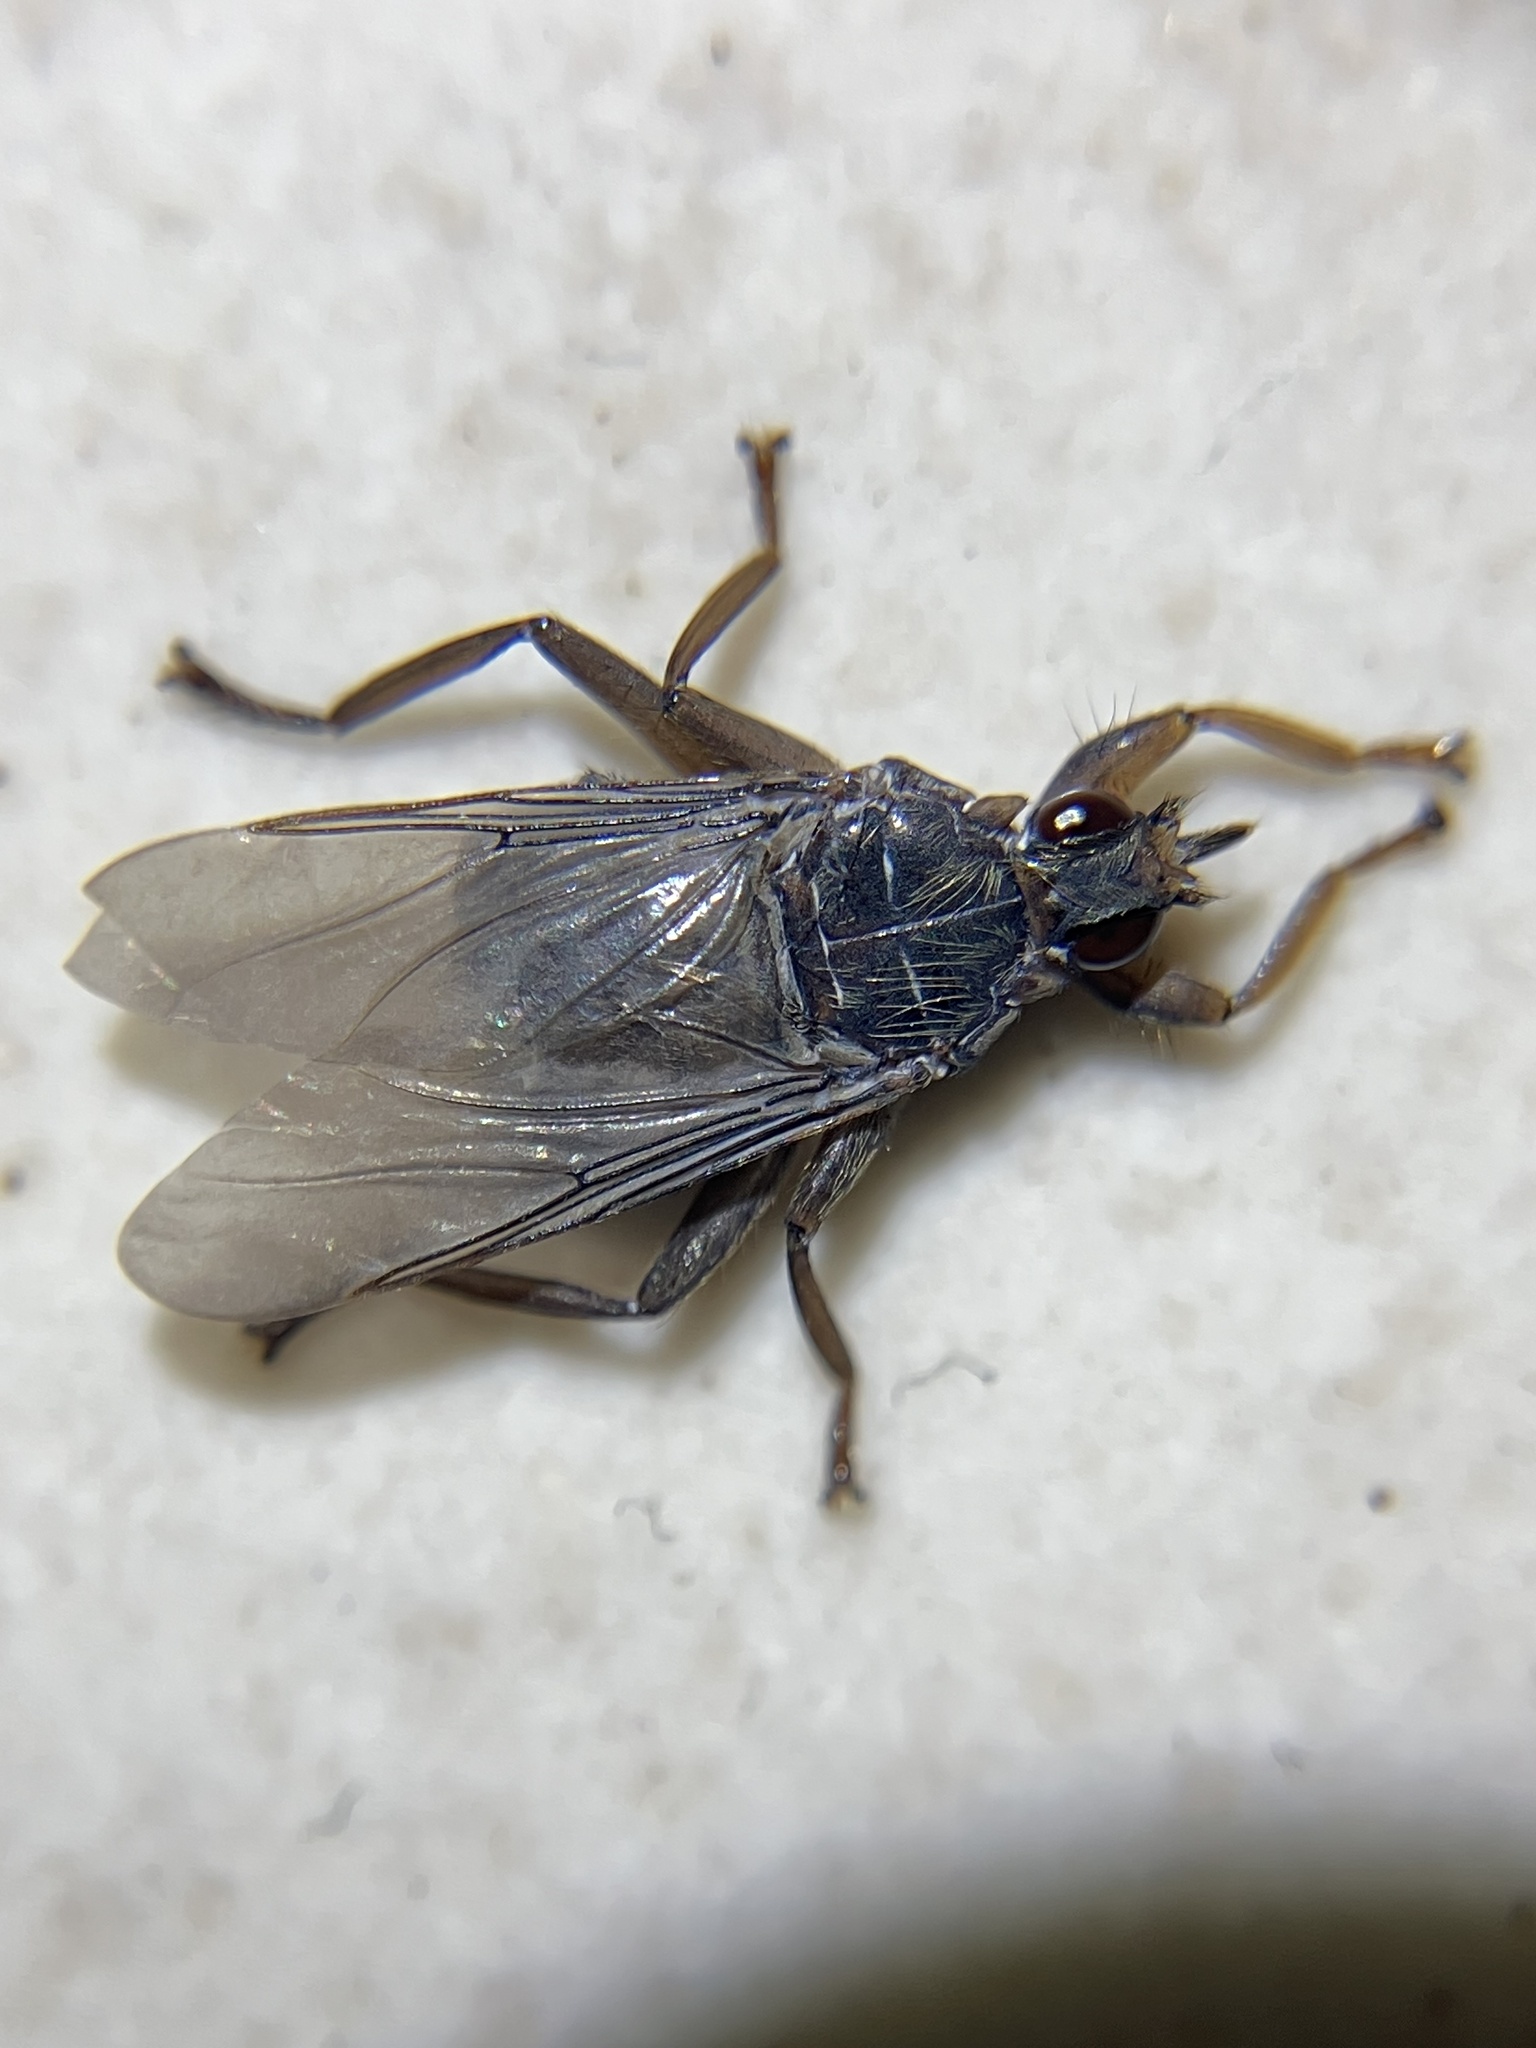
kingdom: Animalia
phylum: Arthropoda
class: Insecta
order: Diptera
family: Hippoboscidae
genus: Pseudolynchia
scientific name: Pseudolynchia canariensis
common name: Louse fly
